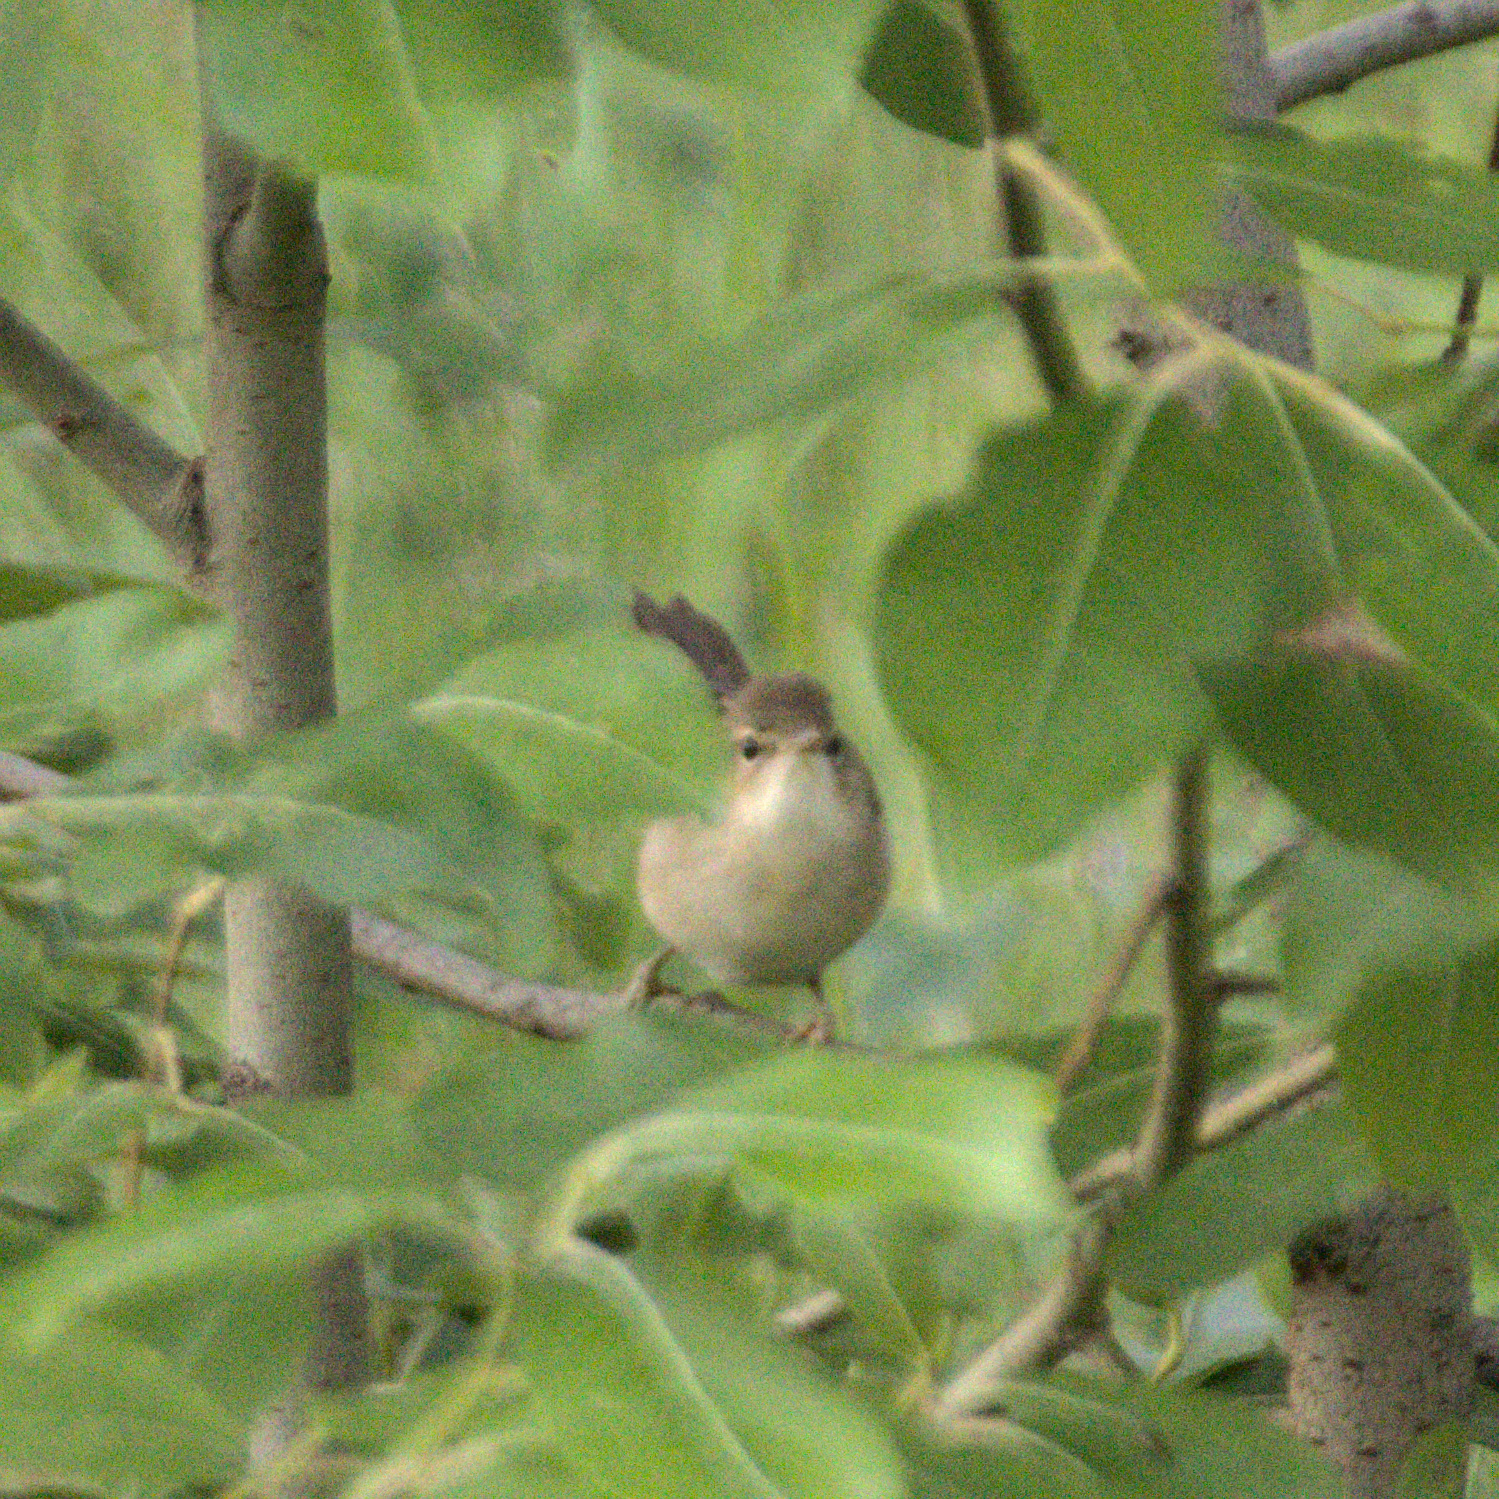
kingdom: Animalia
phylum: Chordata
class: Aves
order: Passeriformes
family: Acrocephalidae
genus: Iduna
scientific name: Iduna caligata
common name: Booted warbler
